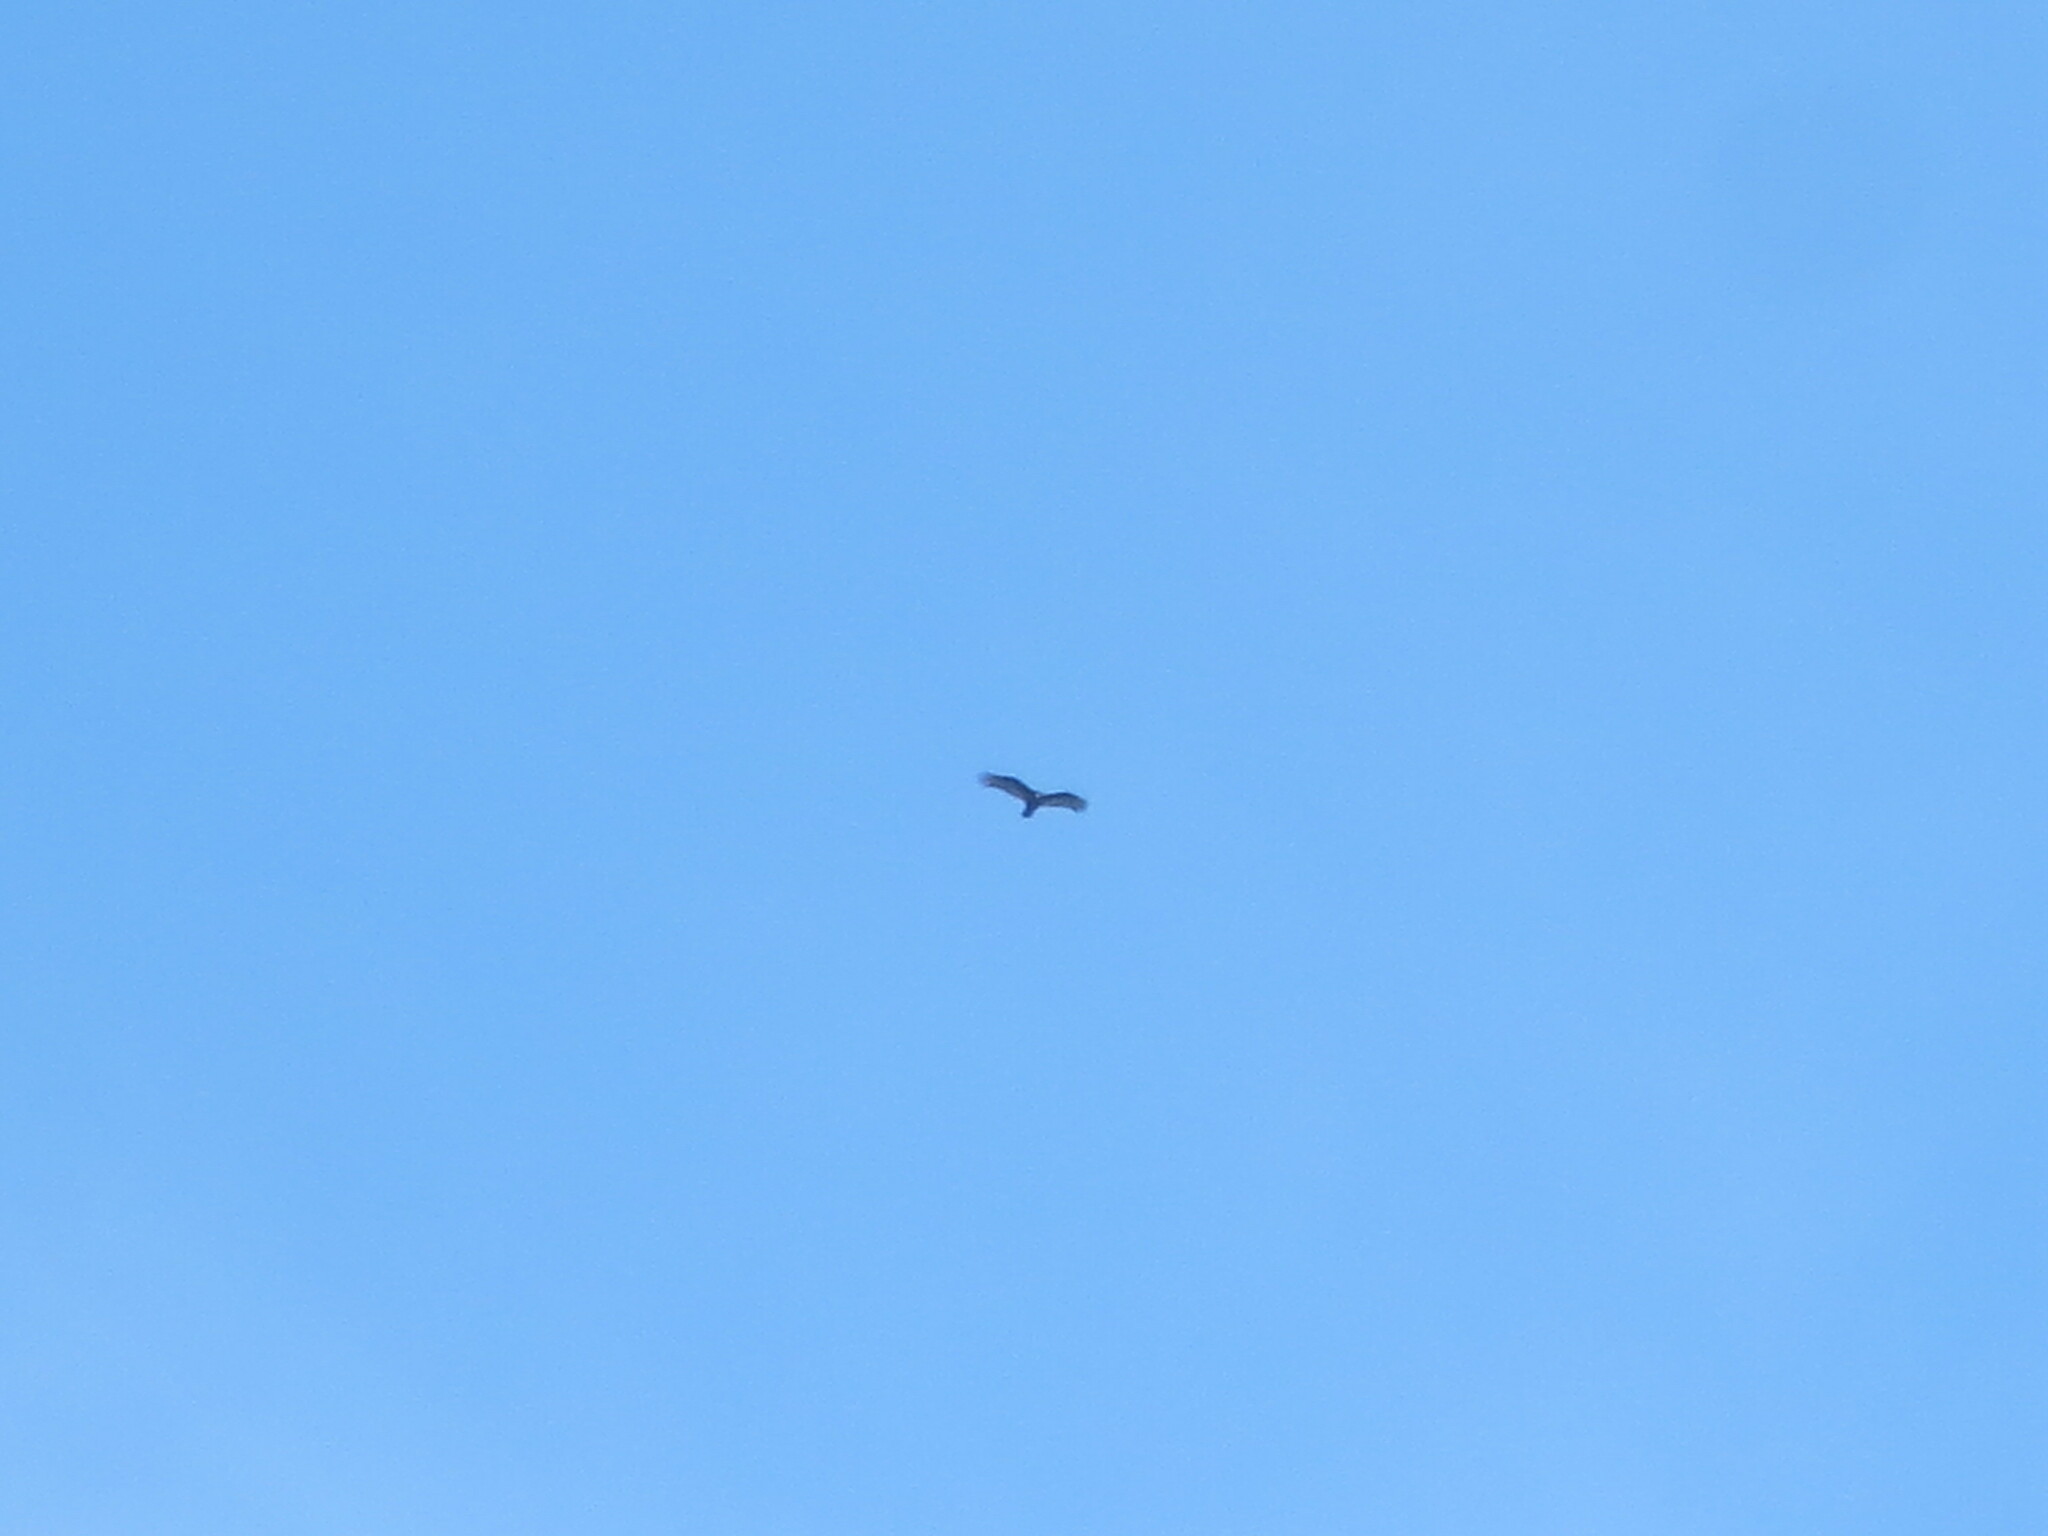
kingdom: Animalia
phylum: Chordata
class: Aves
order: Accipitriformes
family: Cathartidae
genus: Cathartes
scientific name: Cathartes aura
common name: Turkey vulture
